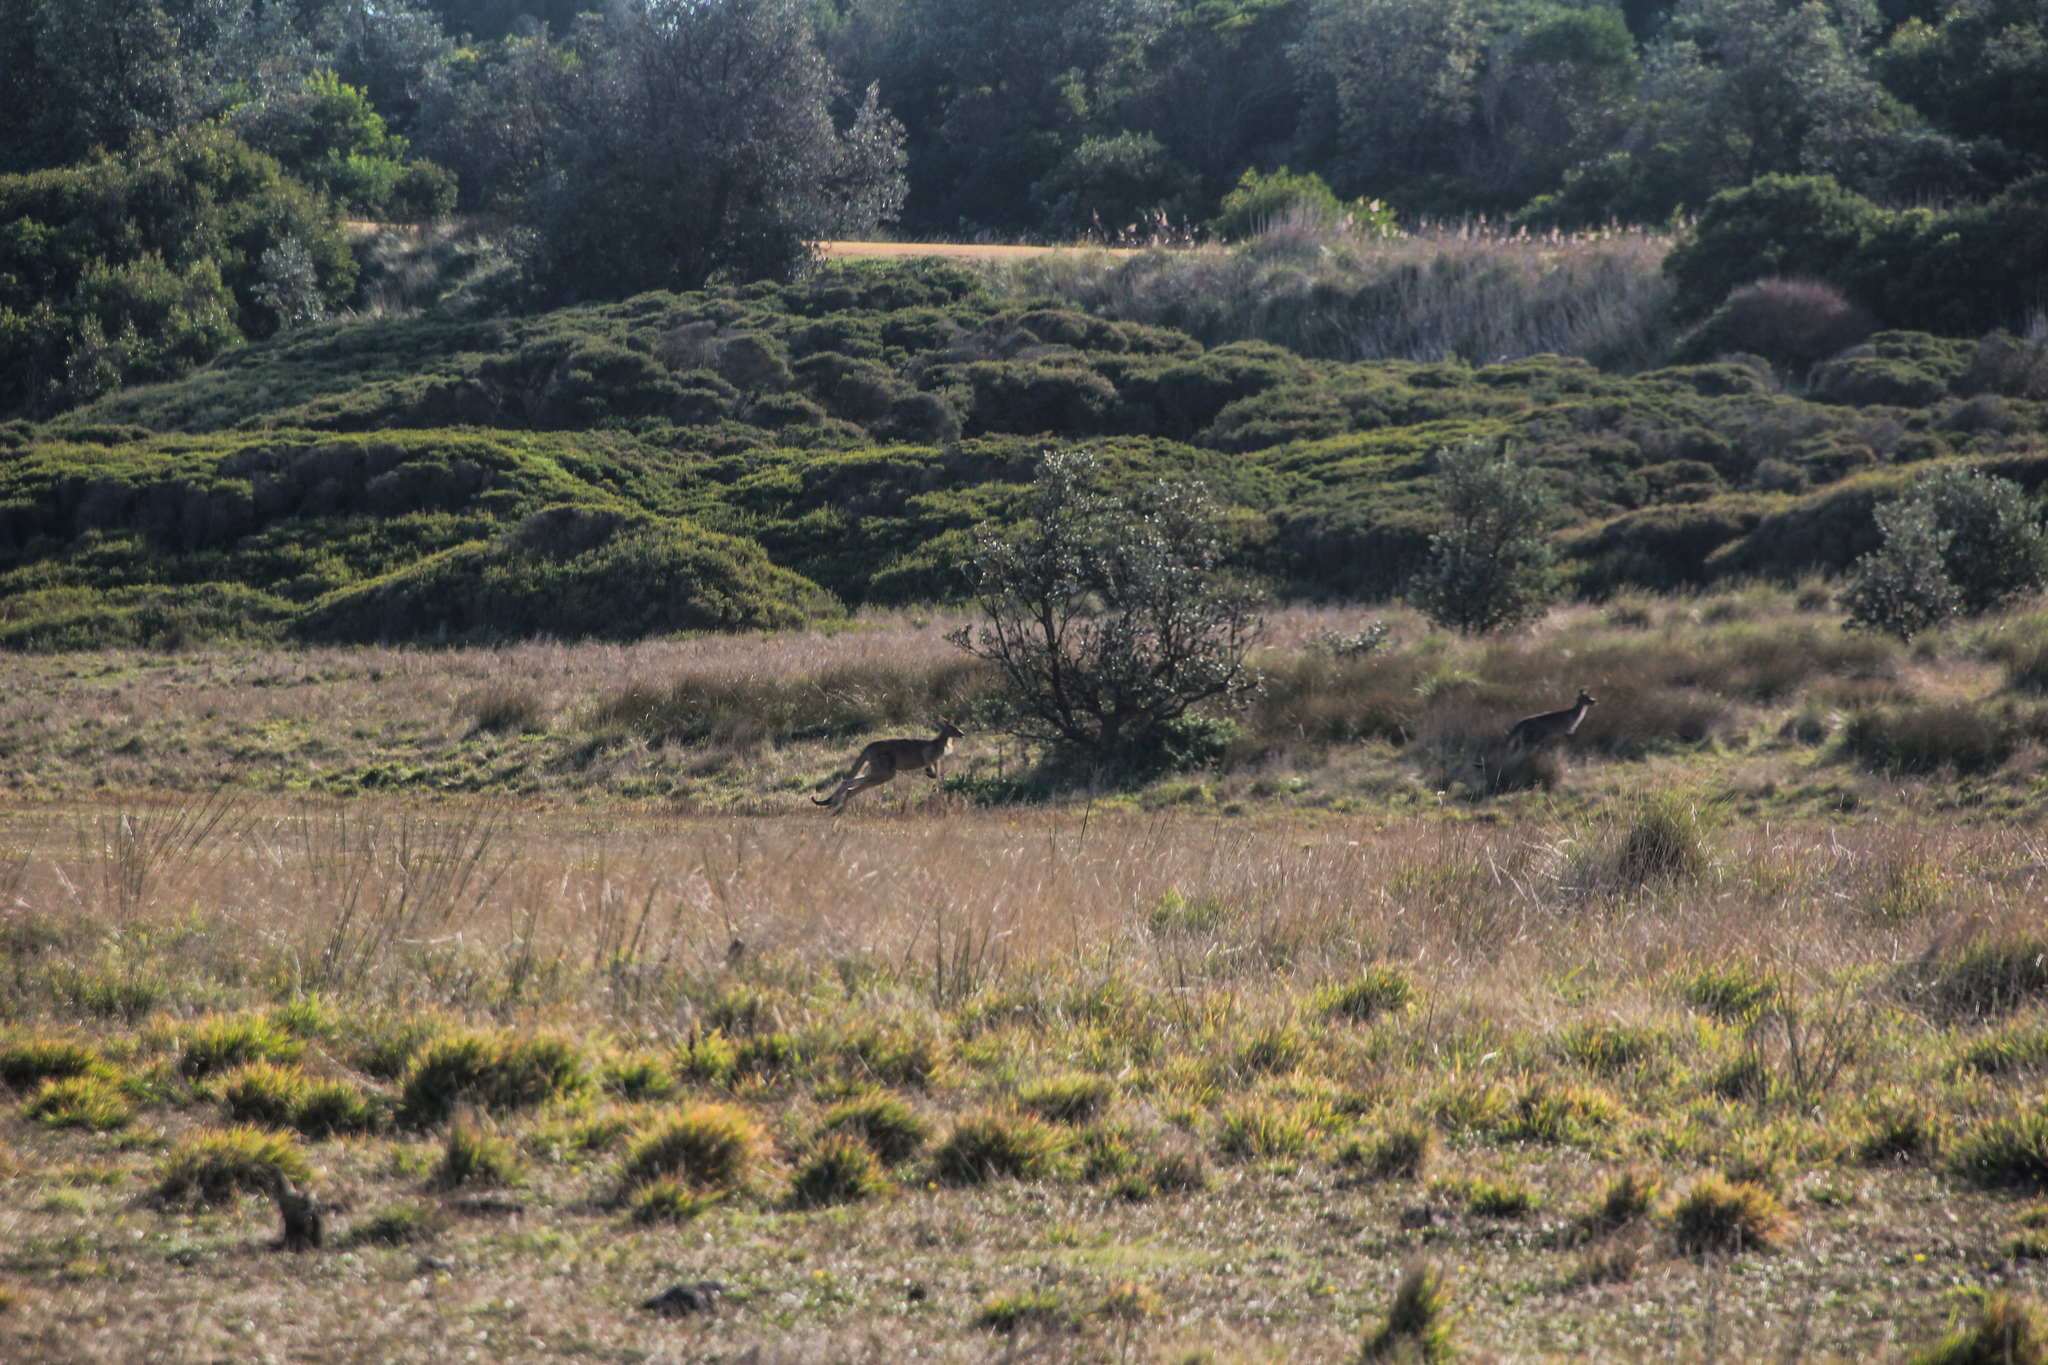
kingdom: Animalia
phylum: Chordata
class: Mammalia
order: Diprotodontia
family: Macropodidae
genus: Macropus
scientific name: Macropus giganteus
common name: Eastern grey kangaroo
